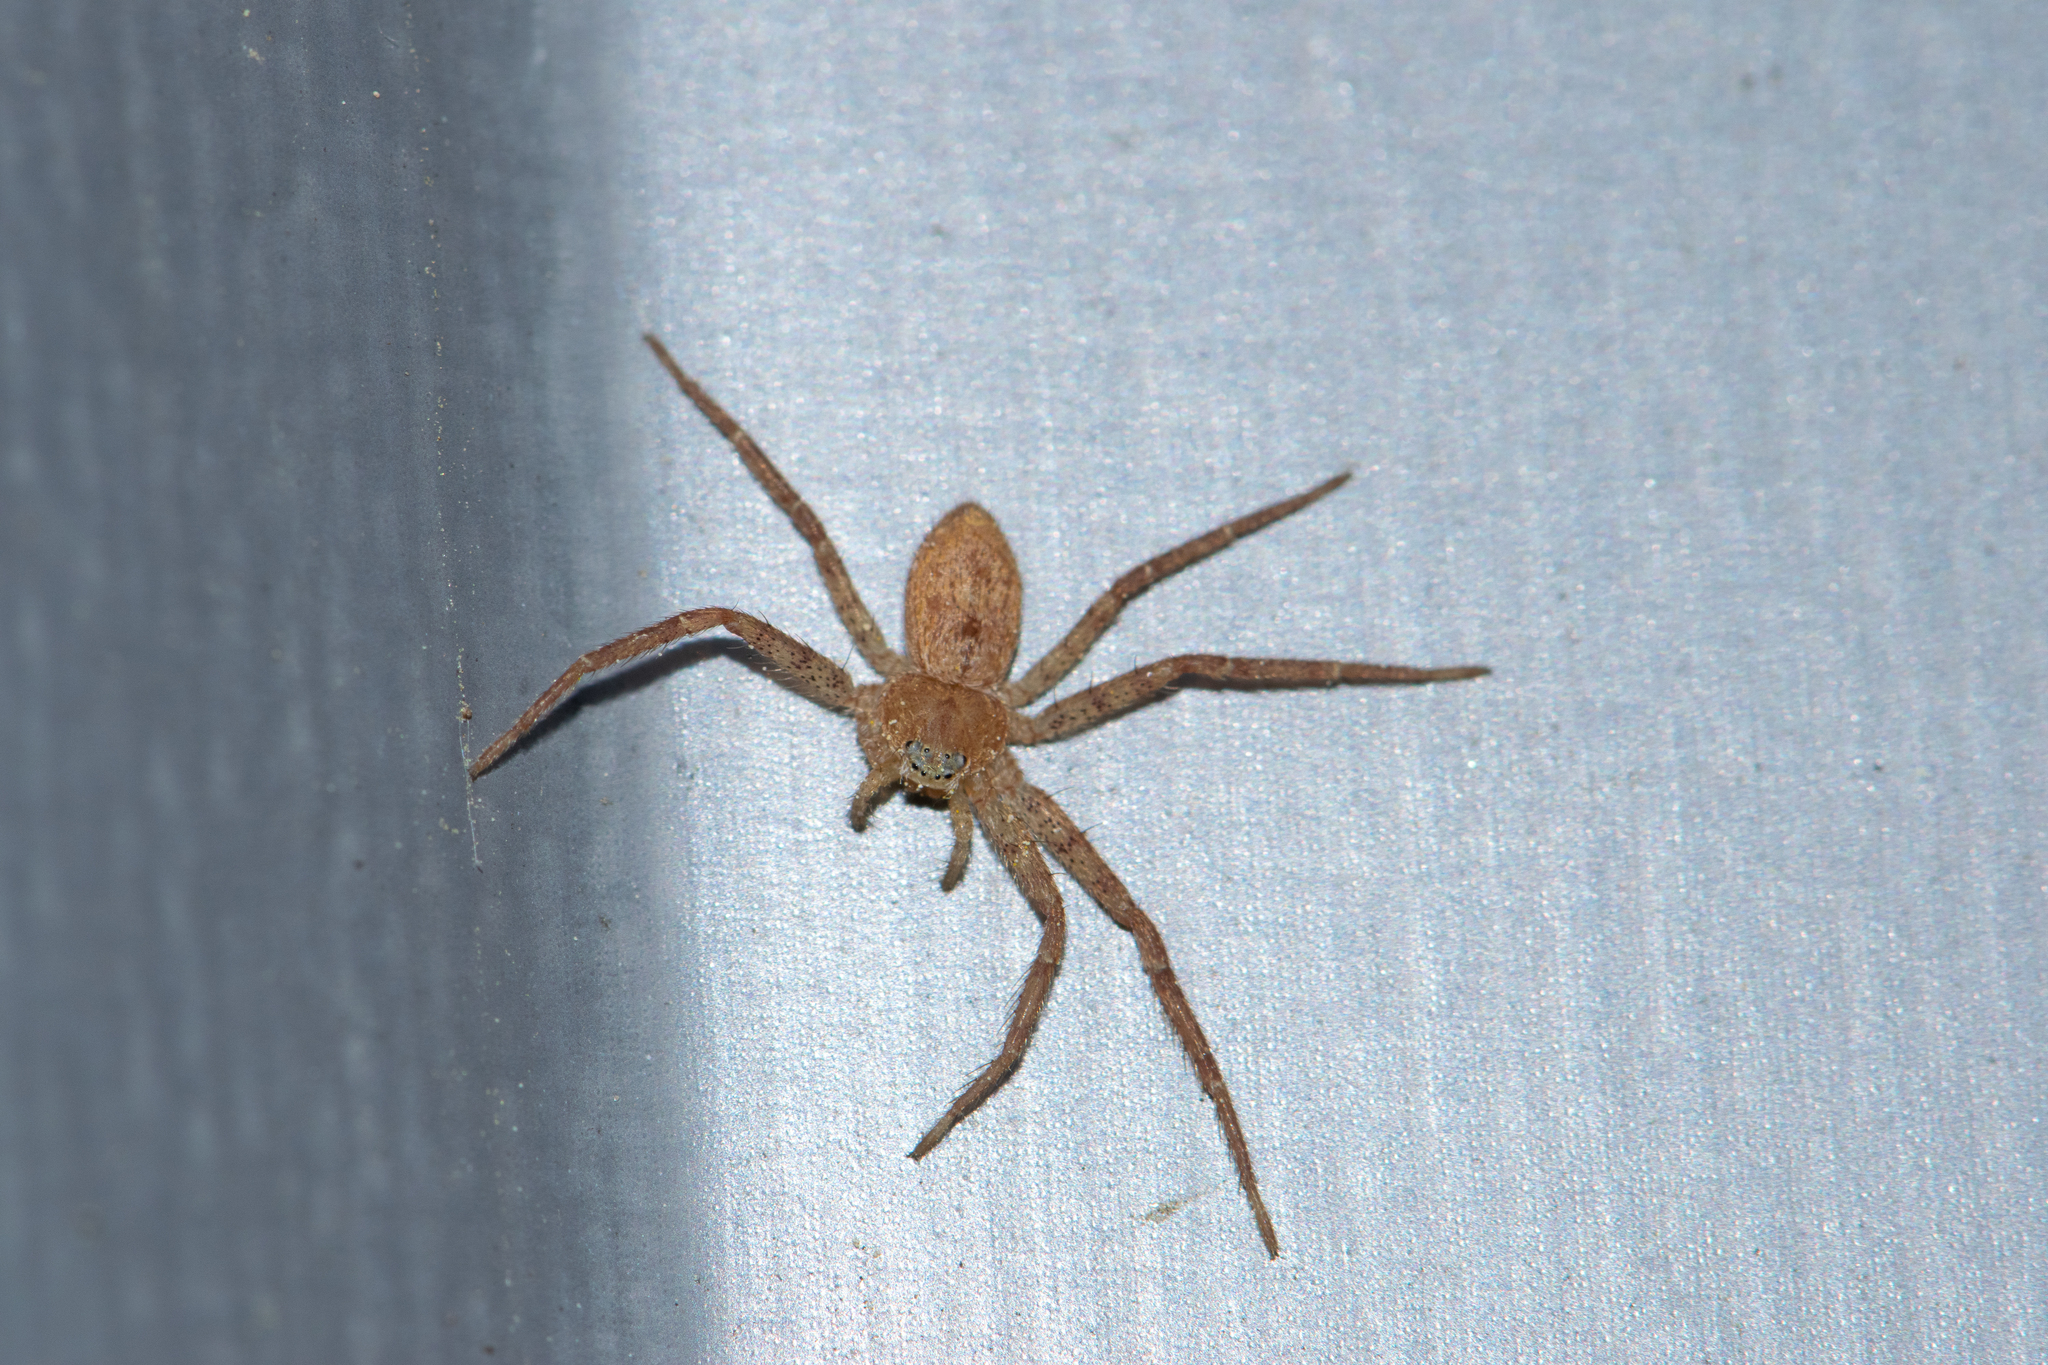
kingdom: Animalia
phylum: Arthropoda
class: Arachnida
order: Araneae
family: Philodromidae
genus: Philodromus
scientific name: Philodromus fuscomarginatus
